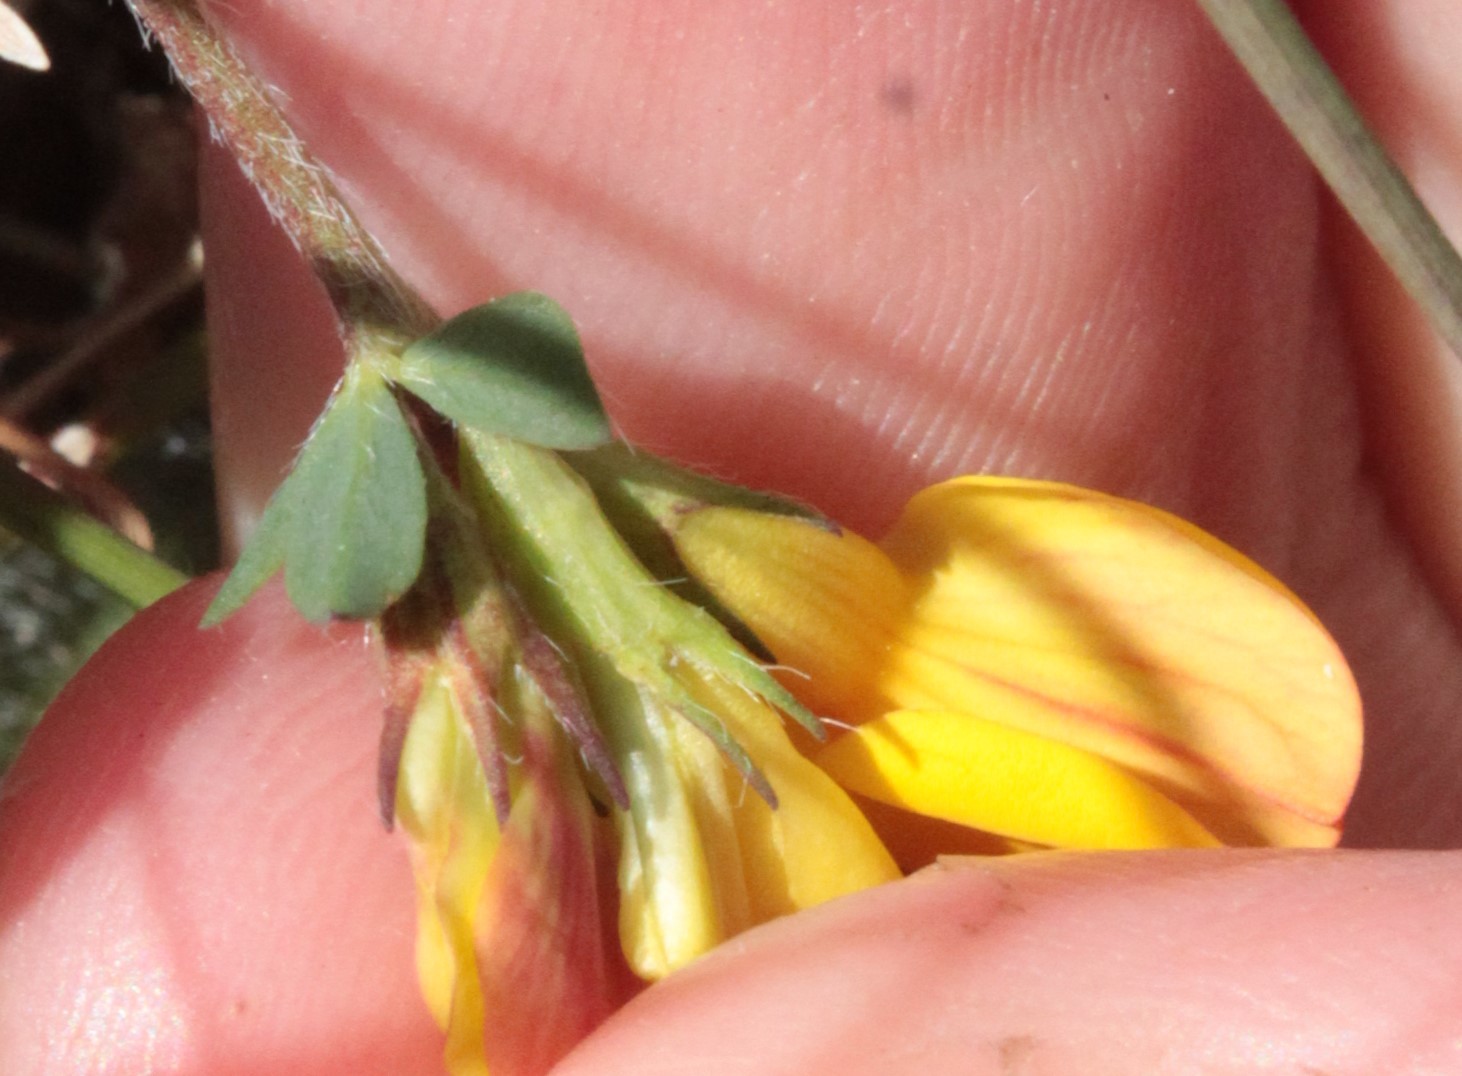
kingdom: Plantae
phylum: Tracheophyta
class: Magnoliopsida
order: Fabales
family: Fabaceae
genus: Lotus
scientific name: Lotus corniculatus
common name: Common bird's-foot-trefoil
